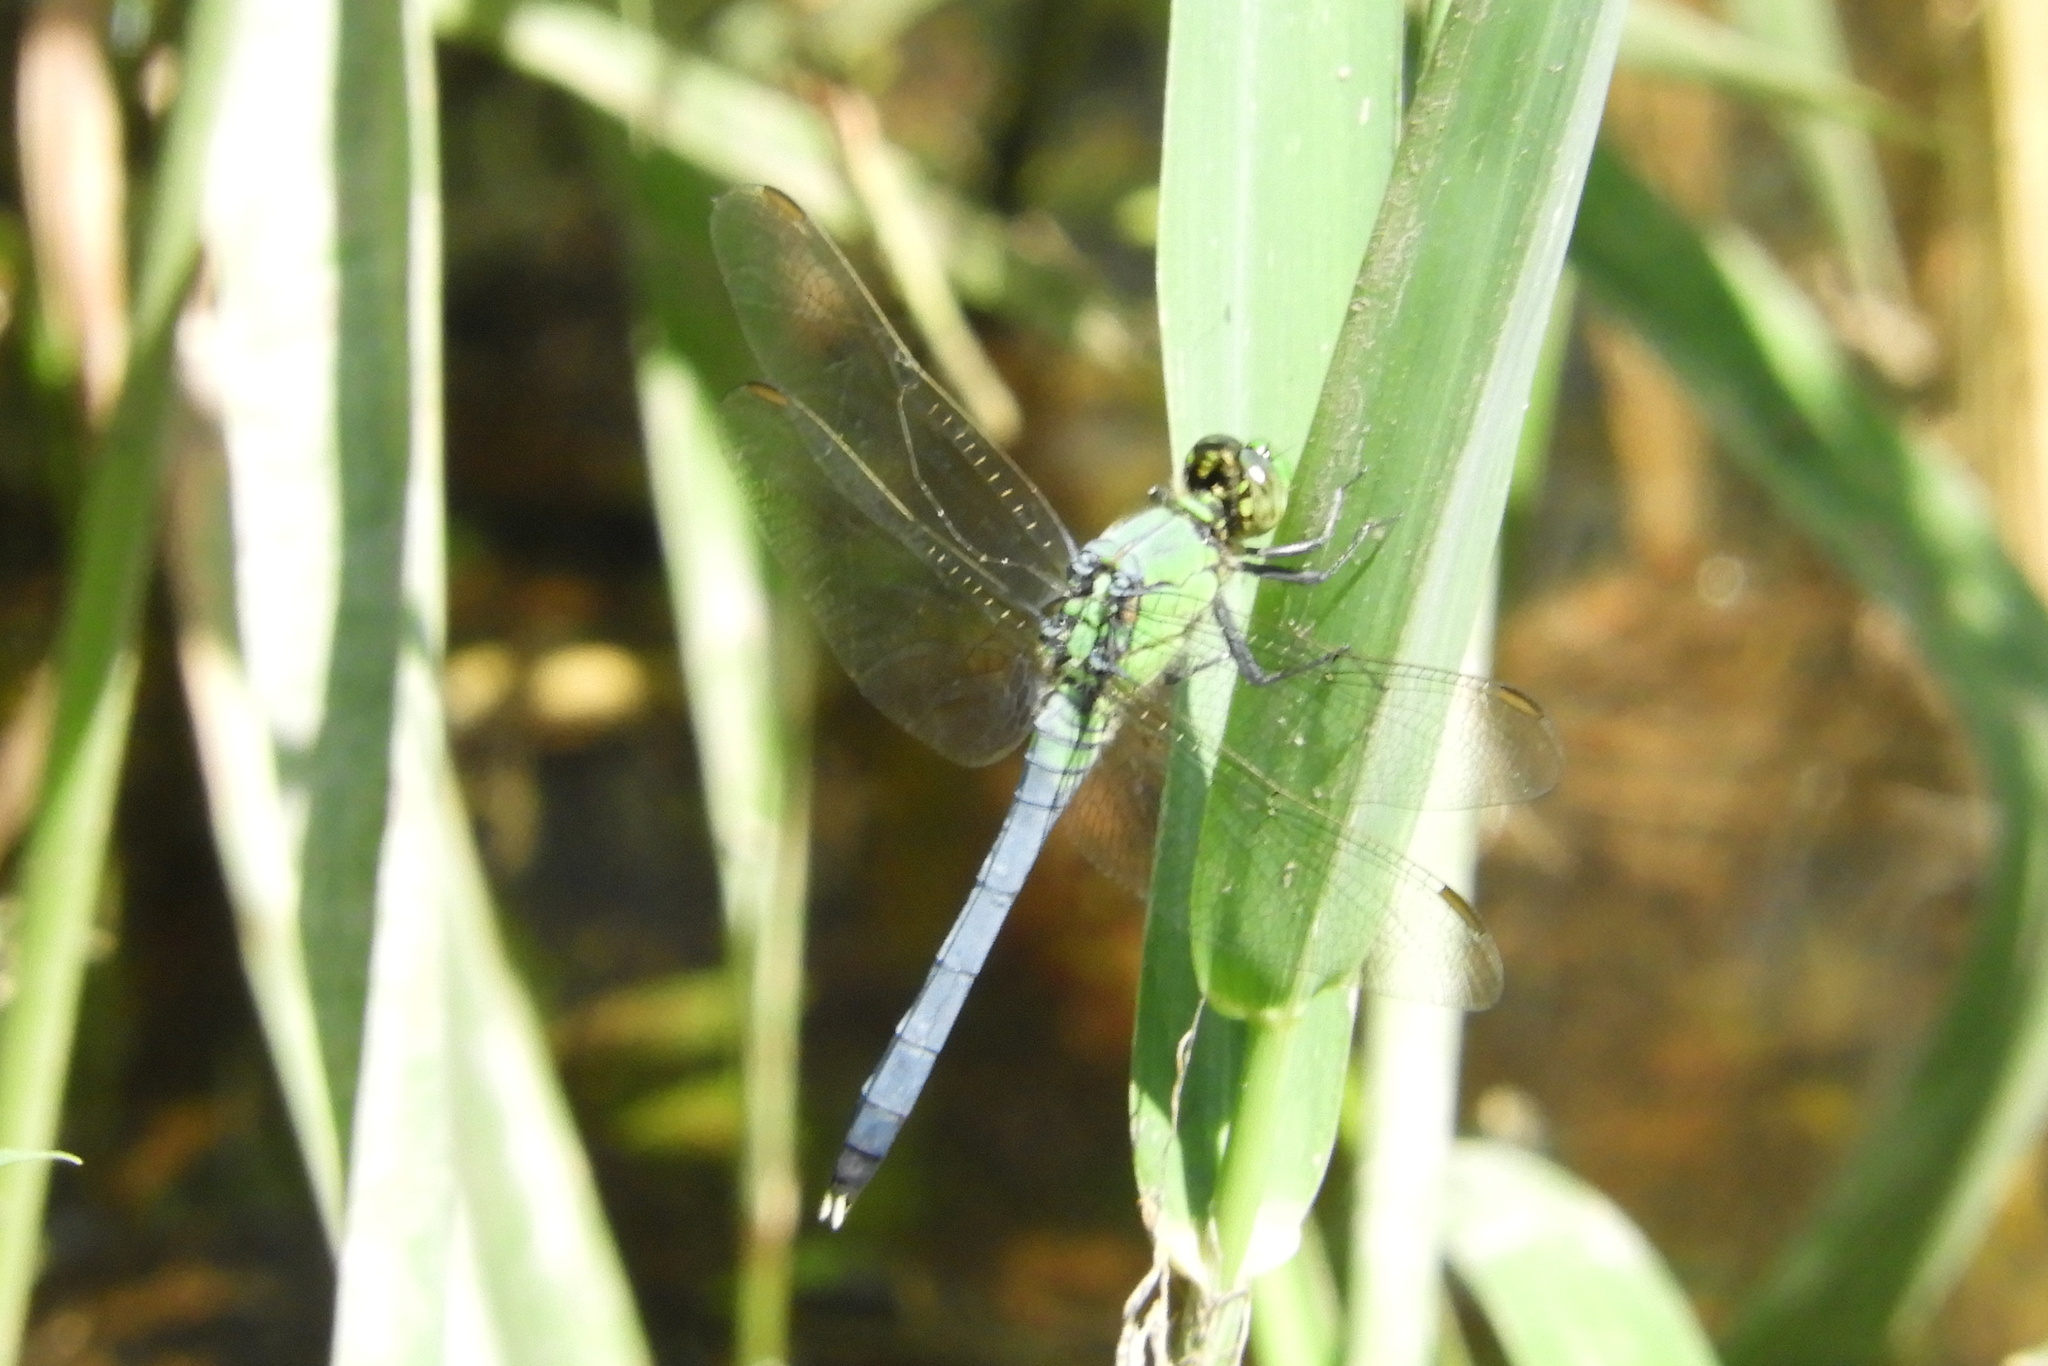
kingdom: Animalia
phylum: Arthropoda
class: Insecta
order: Odonata
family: Libellulidae
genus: Erythemis
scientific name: Erythemis simplicicollis
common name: Eastern pondhawk
